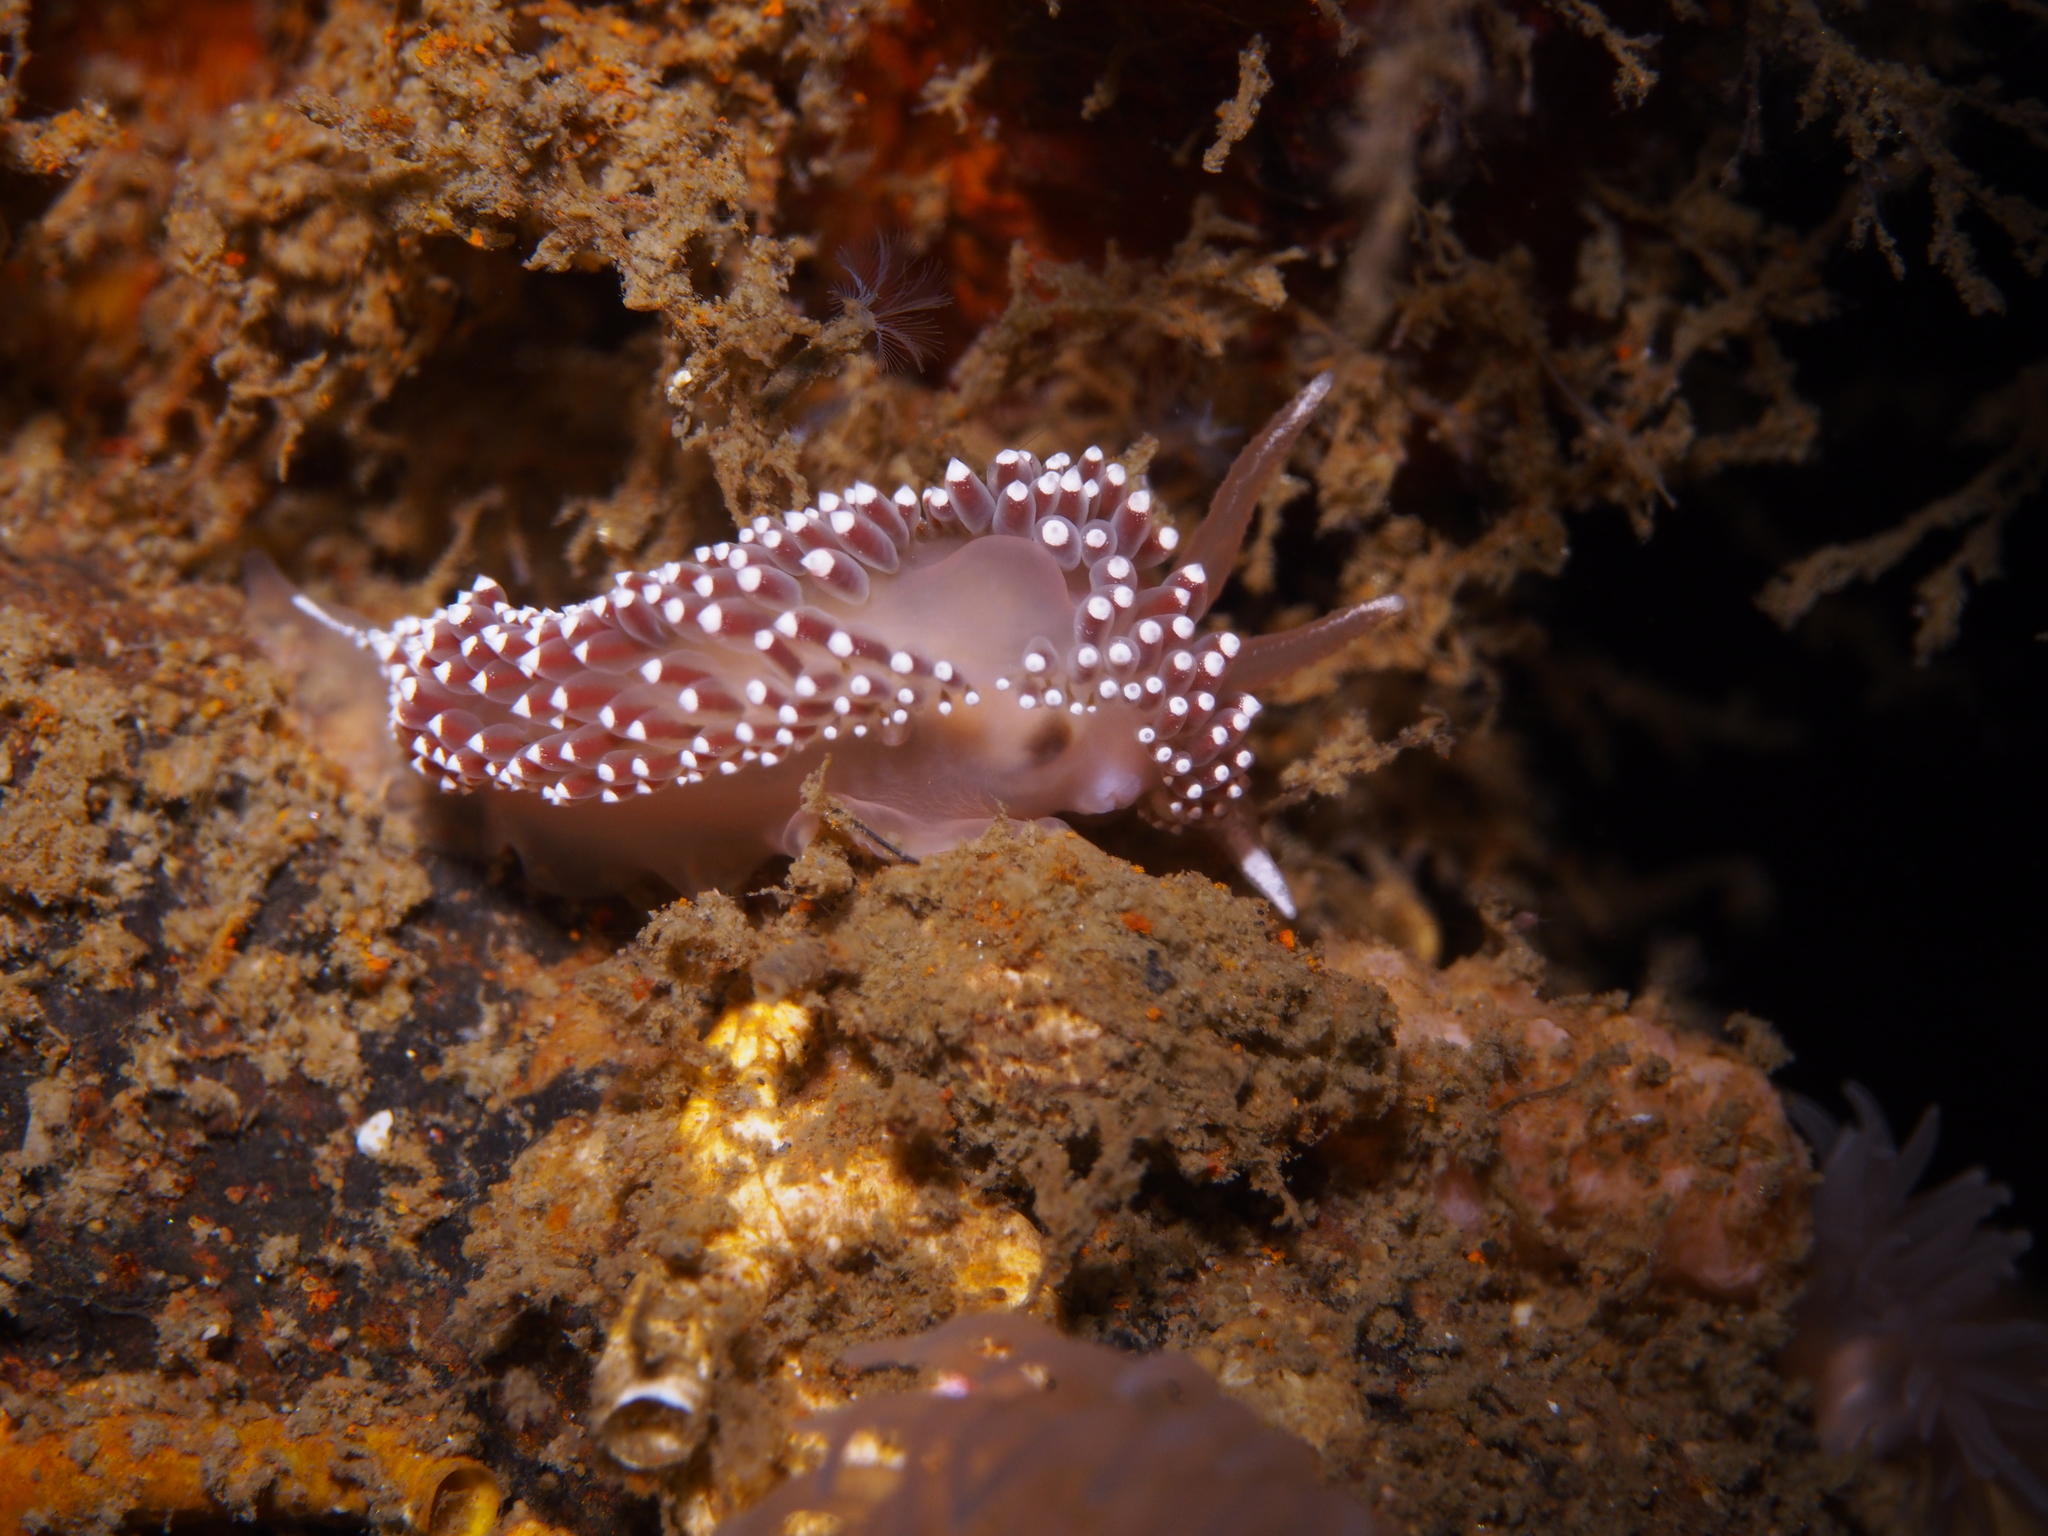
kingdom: Animalia
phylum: Mollusca
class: Gastropoda
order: Nudibranchia
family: Coryphellidae
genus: Coryphella
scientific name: Coryphella verrucosa
